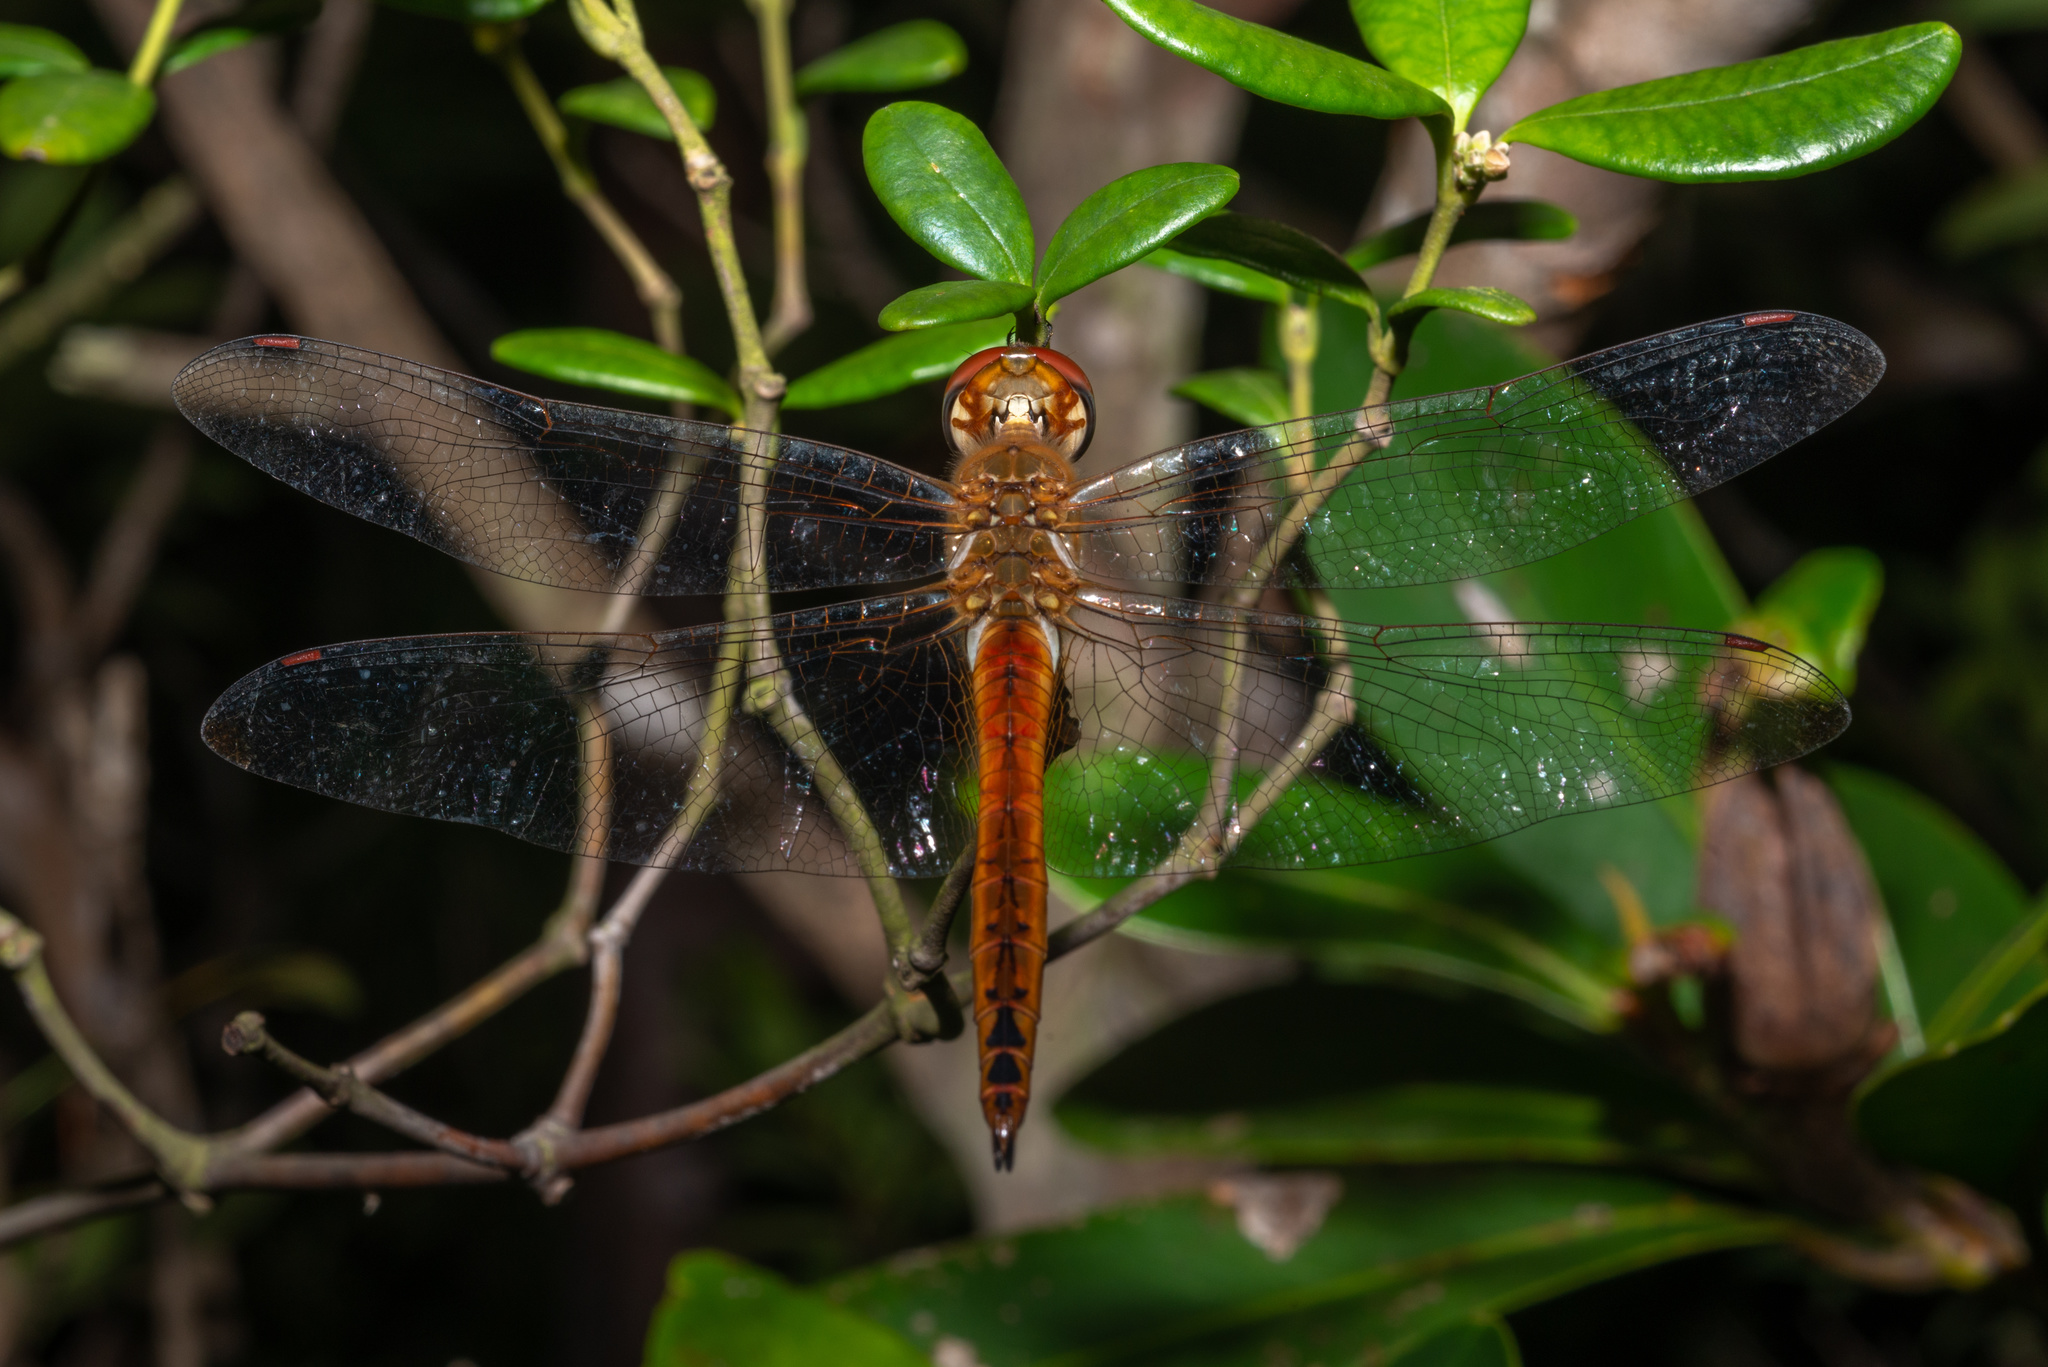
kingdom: Animalia
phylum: Arthropoda
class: Insecta
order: Odonata
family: Libellulidae
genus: Pantala
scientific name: Pantala flavescens
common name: Wandering glider
